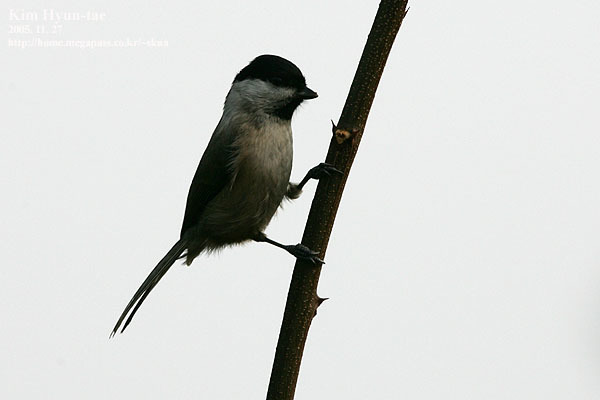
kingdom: Animalia
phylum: Chordata
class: Aves
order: Passeriformes
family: Paridae
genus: Poecile
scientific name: Poecile palustris
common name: Marsh tit
